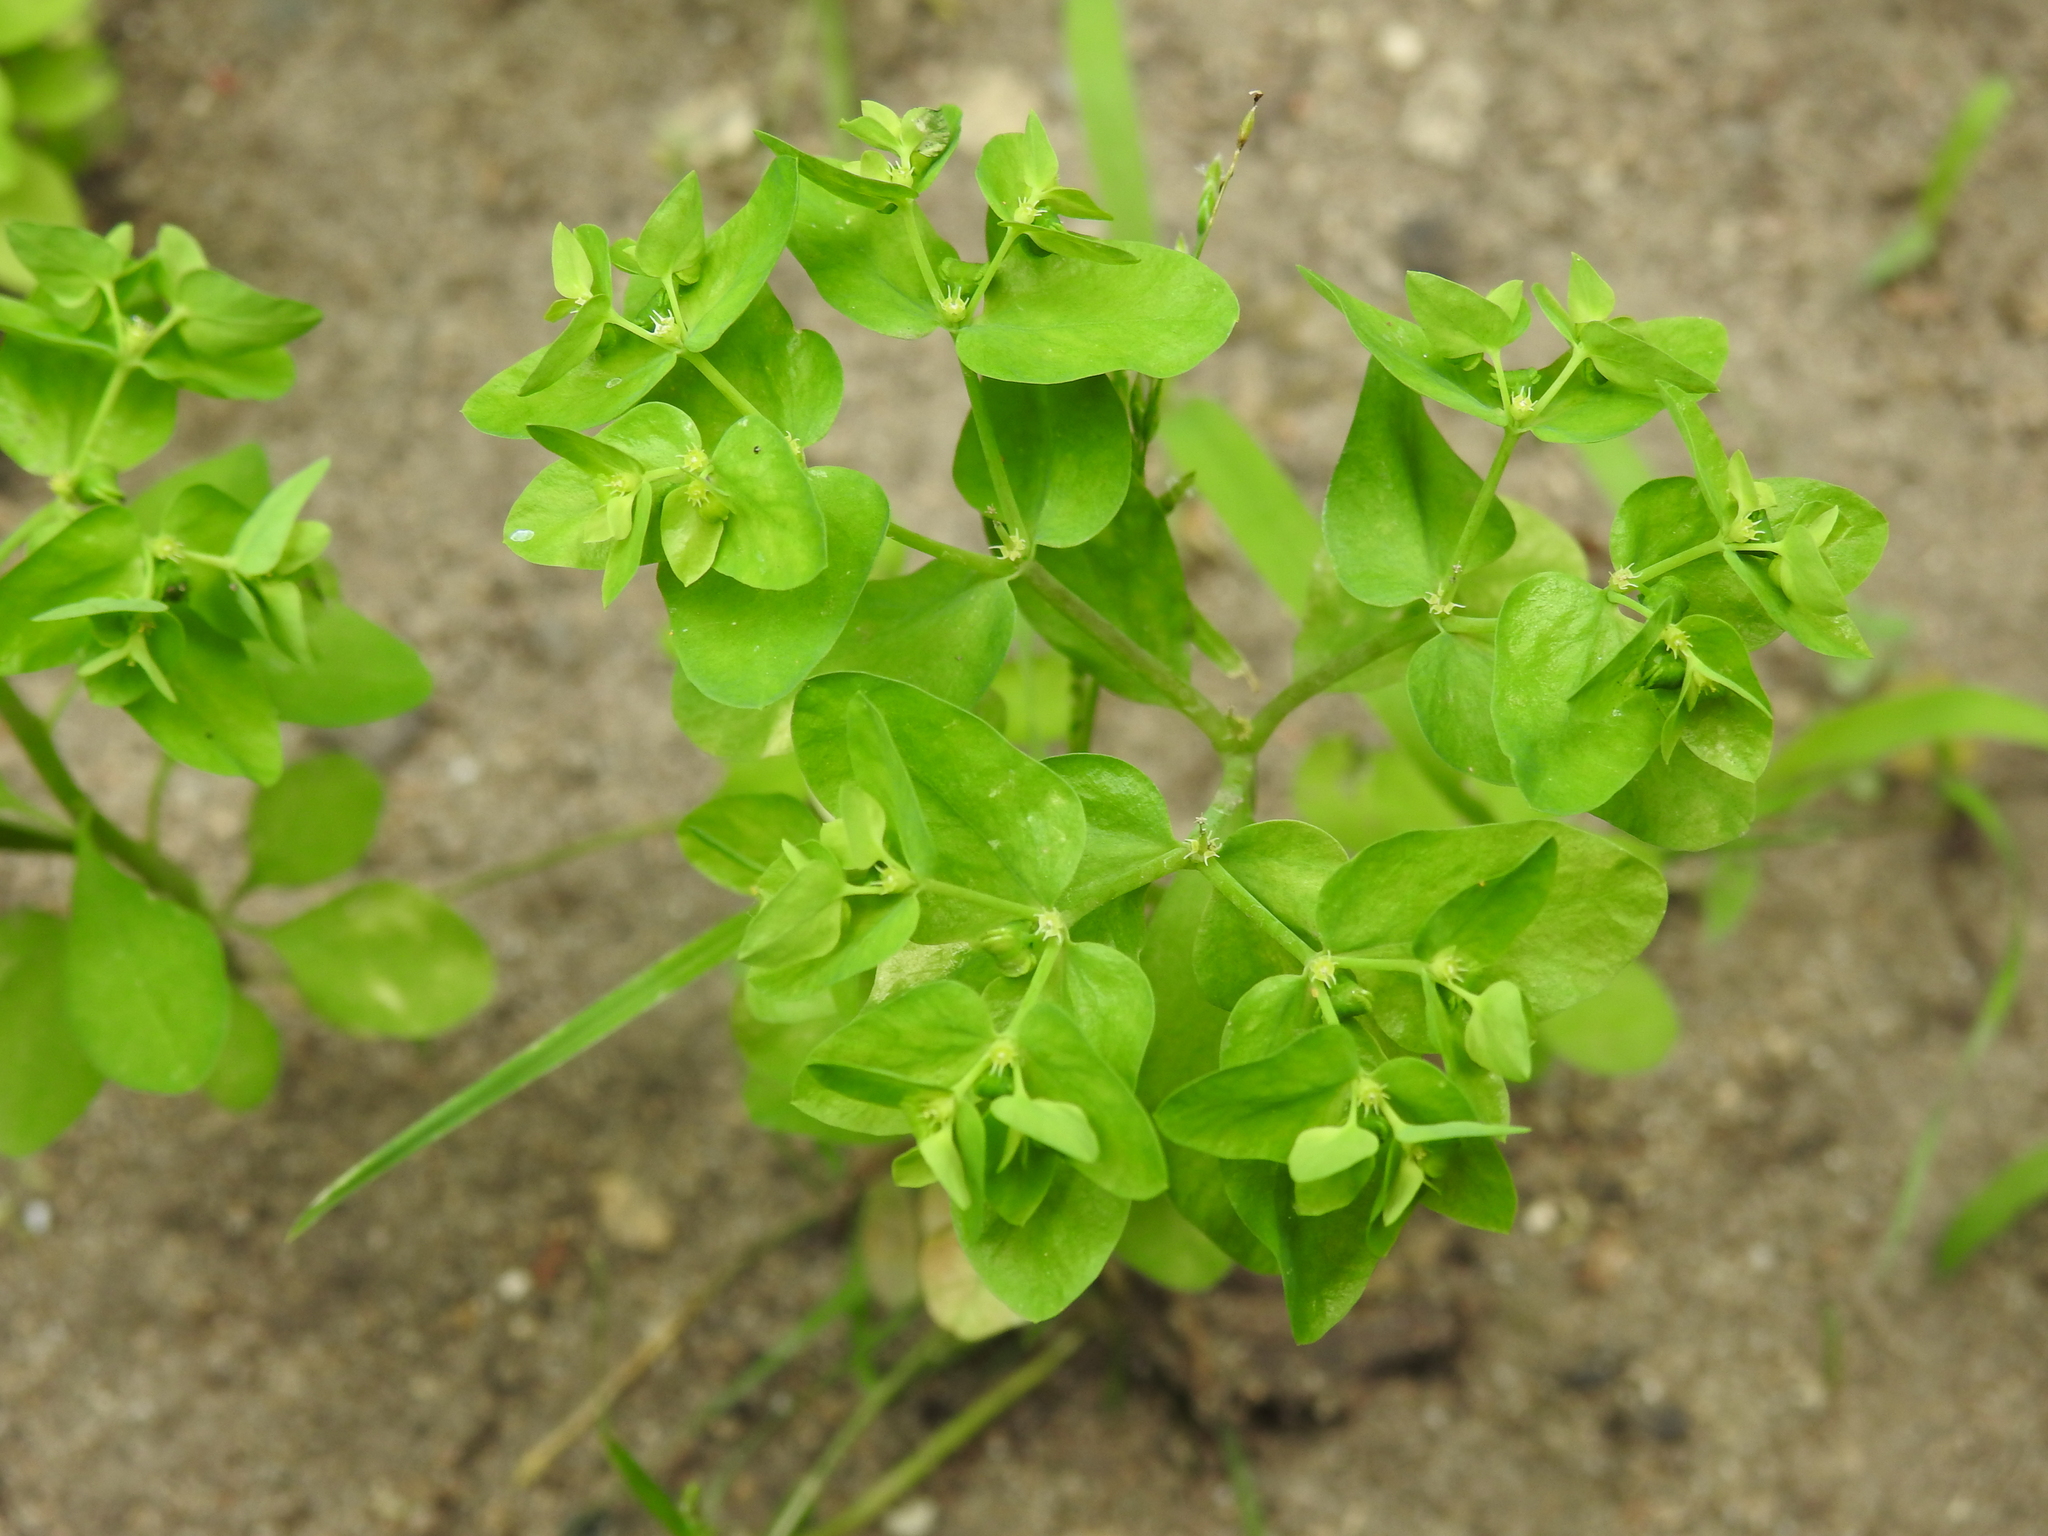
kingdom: Plantae
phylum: Tracheophyta
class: Magnoliopsida
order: Malpighiales
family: Euphorbiaceae
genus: Euphorbia
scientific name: Euphorbia peplus
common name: Petty spurge
